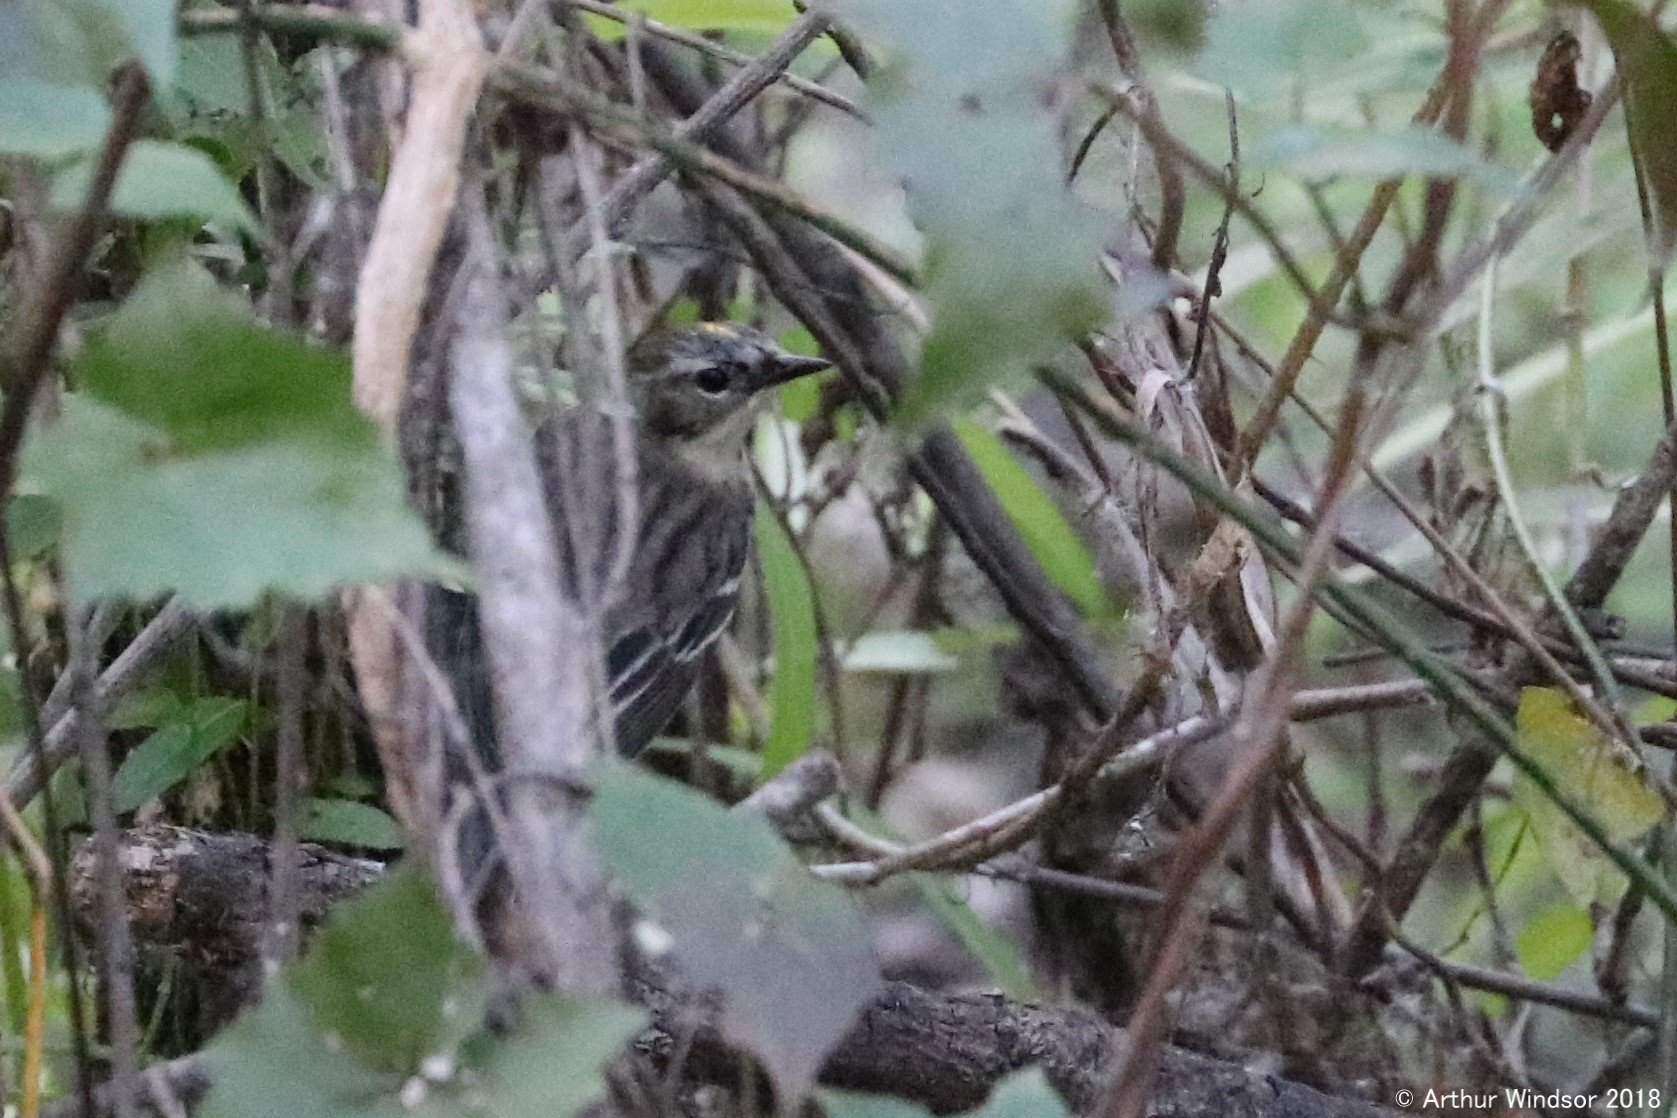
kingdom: Animalia
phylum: Chordata
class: Aves
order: Passeriformes
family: Parulidae
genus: Setophaga
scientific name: Setophaga coronata
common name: Myrtle warbler
